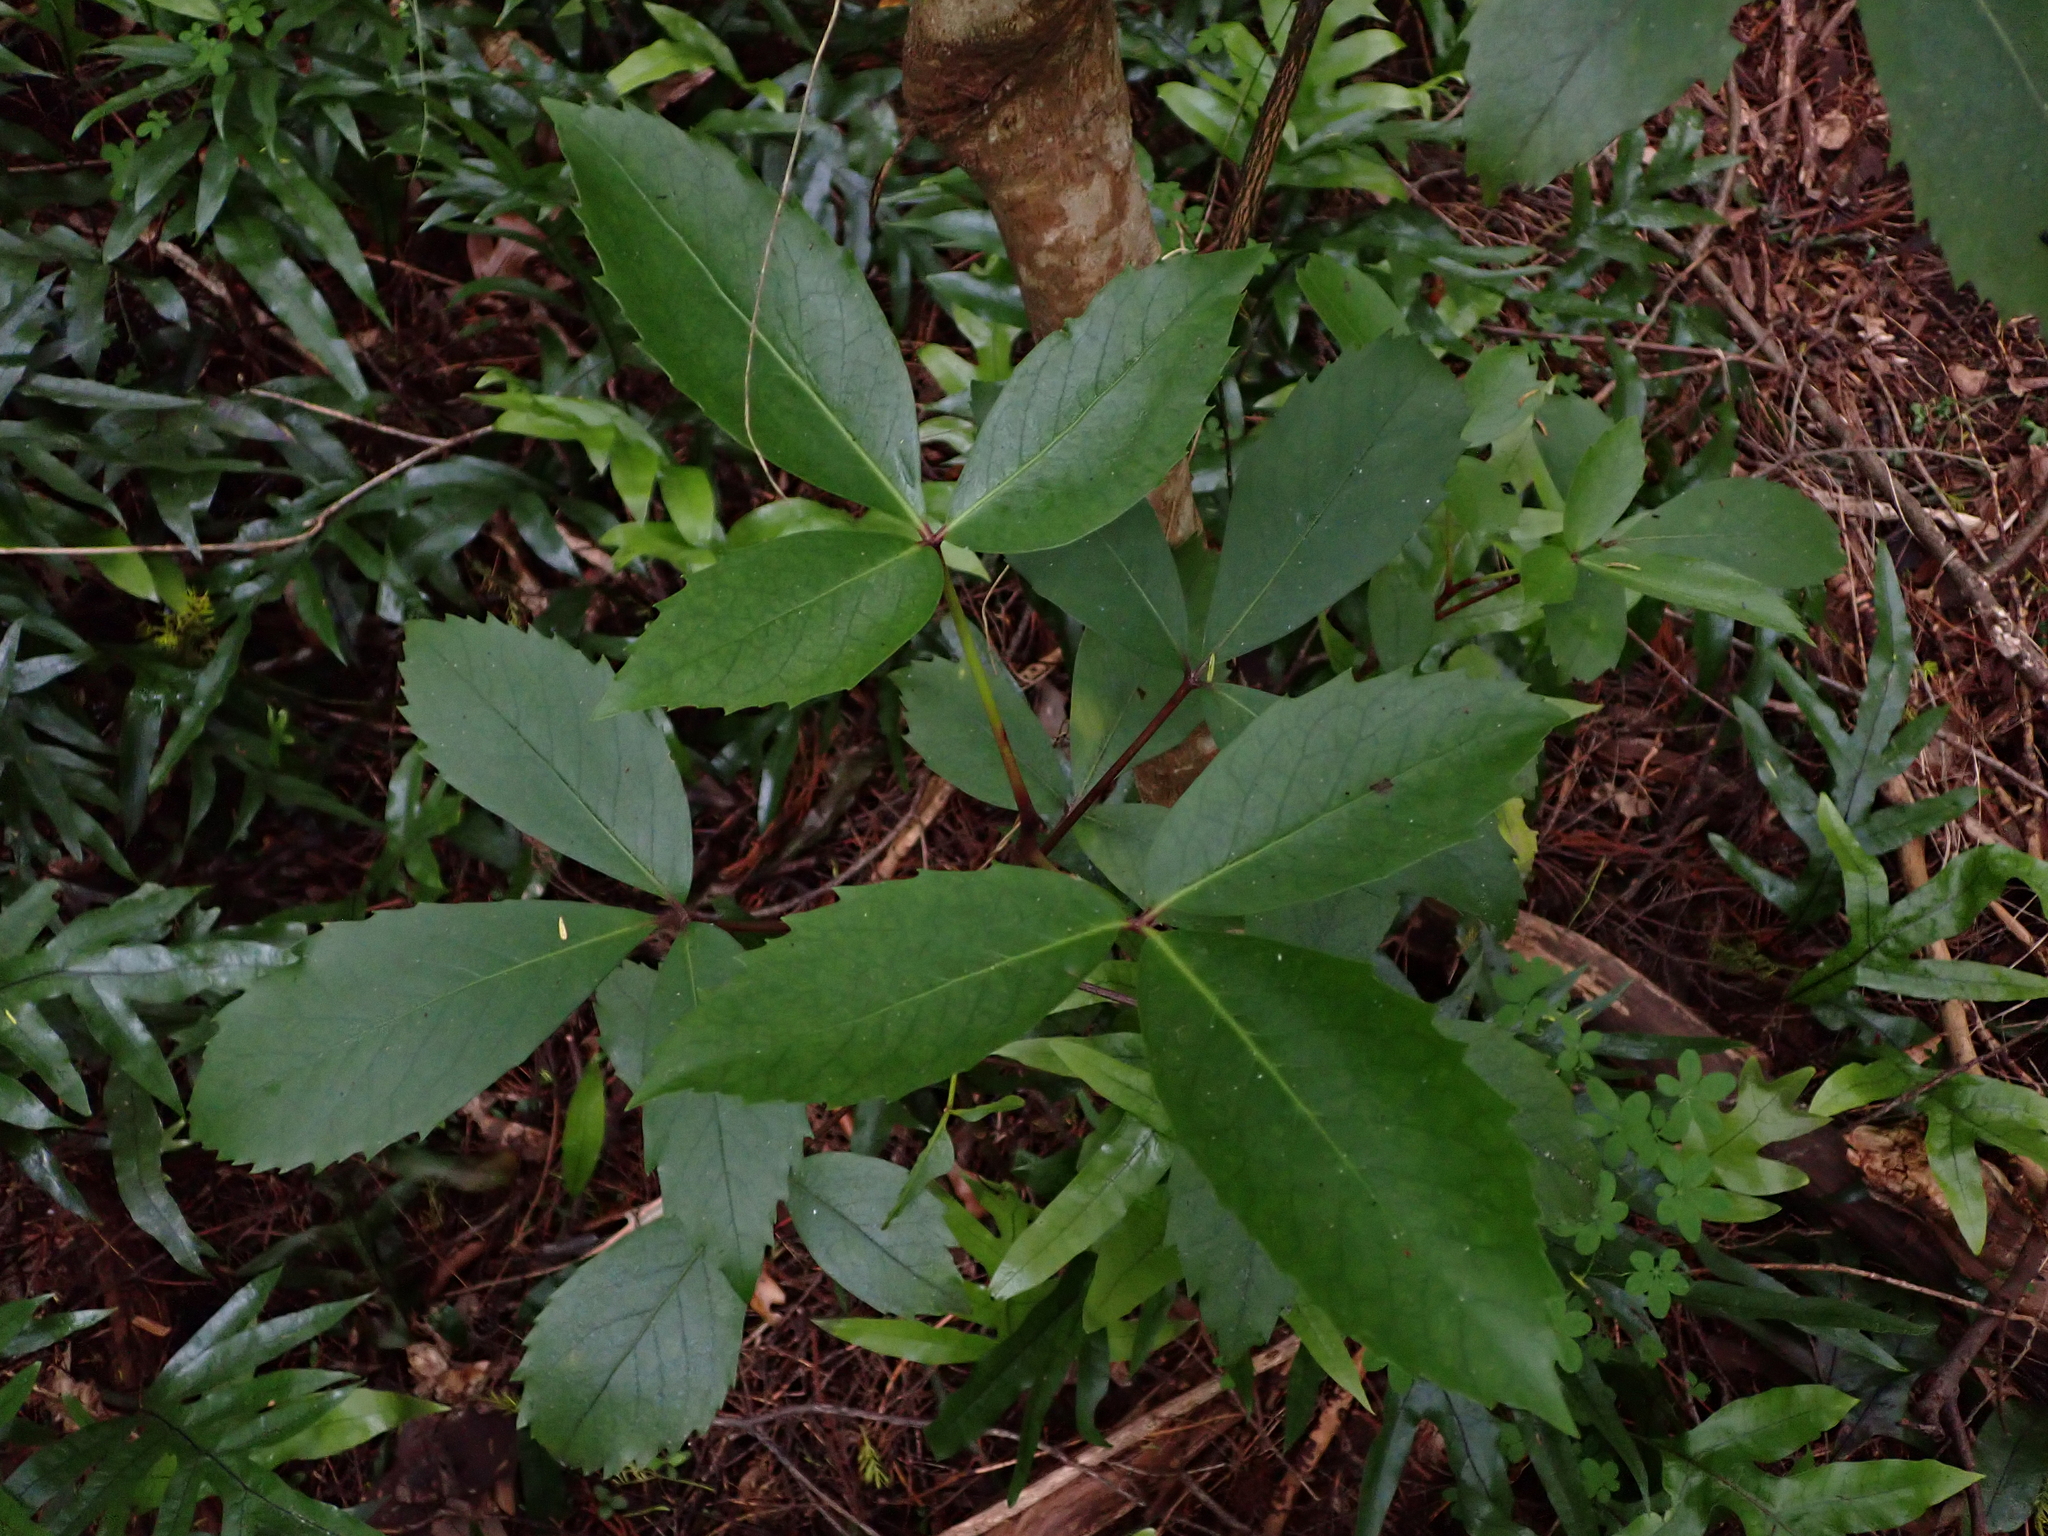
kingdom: Plantae
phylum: Tracheophyta
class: Magnoliopsida
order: Apiales
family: Araliaceae
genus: Neopanax
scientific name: Neopanax colensoi
